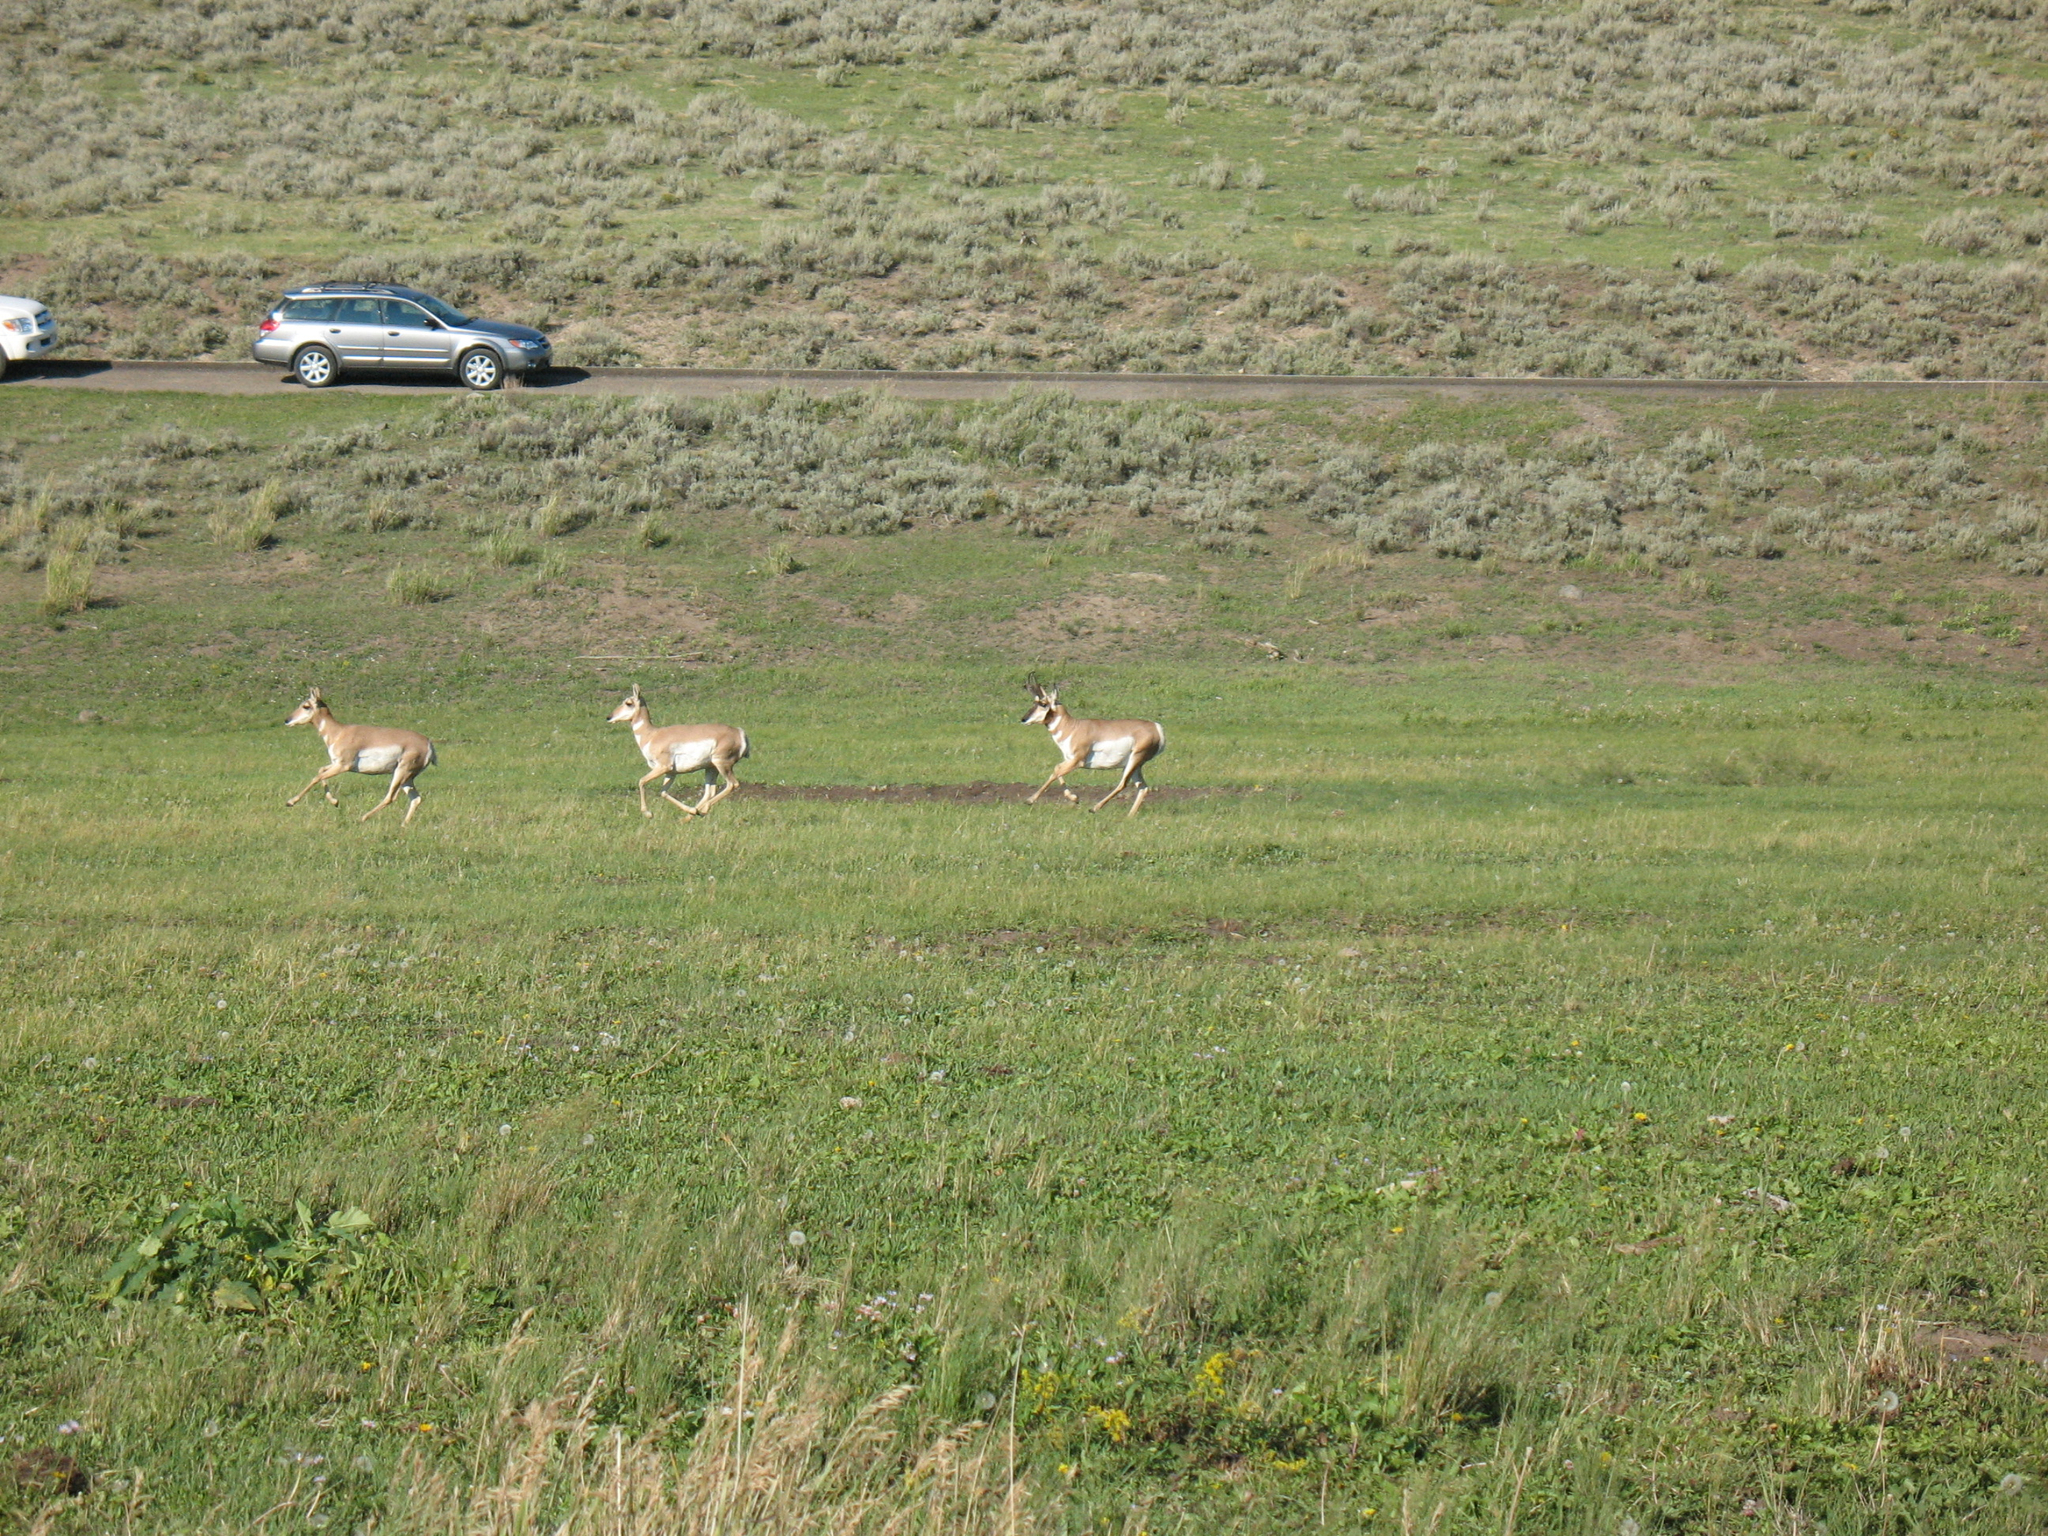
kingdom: Animalia
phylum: Chordata
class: Mammalia
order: Artiodactyla
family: Antilocapridae
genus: Antilocapra
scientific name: Antilocapra americana
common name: Pronghorn
